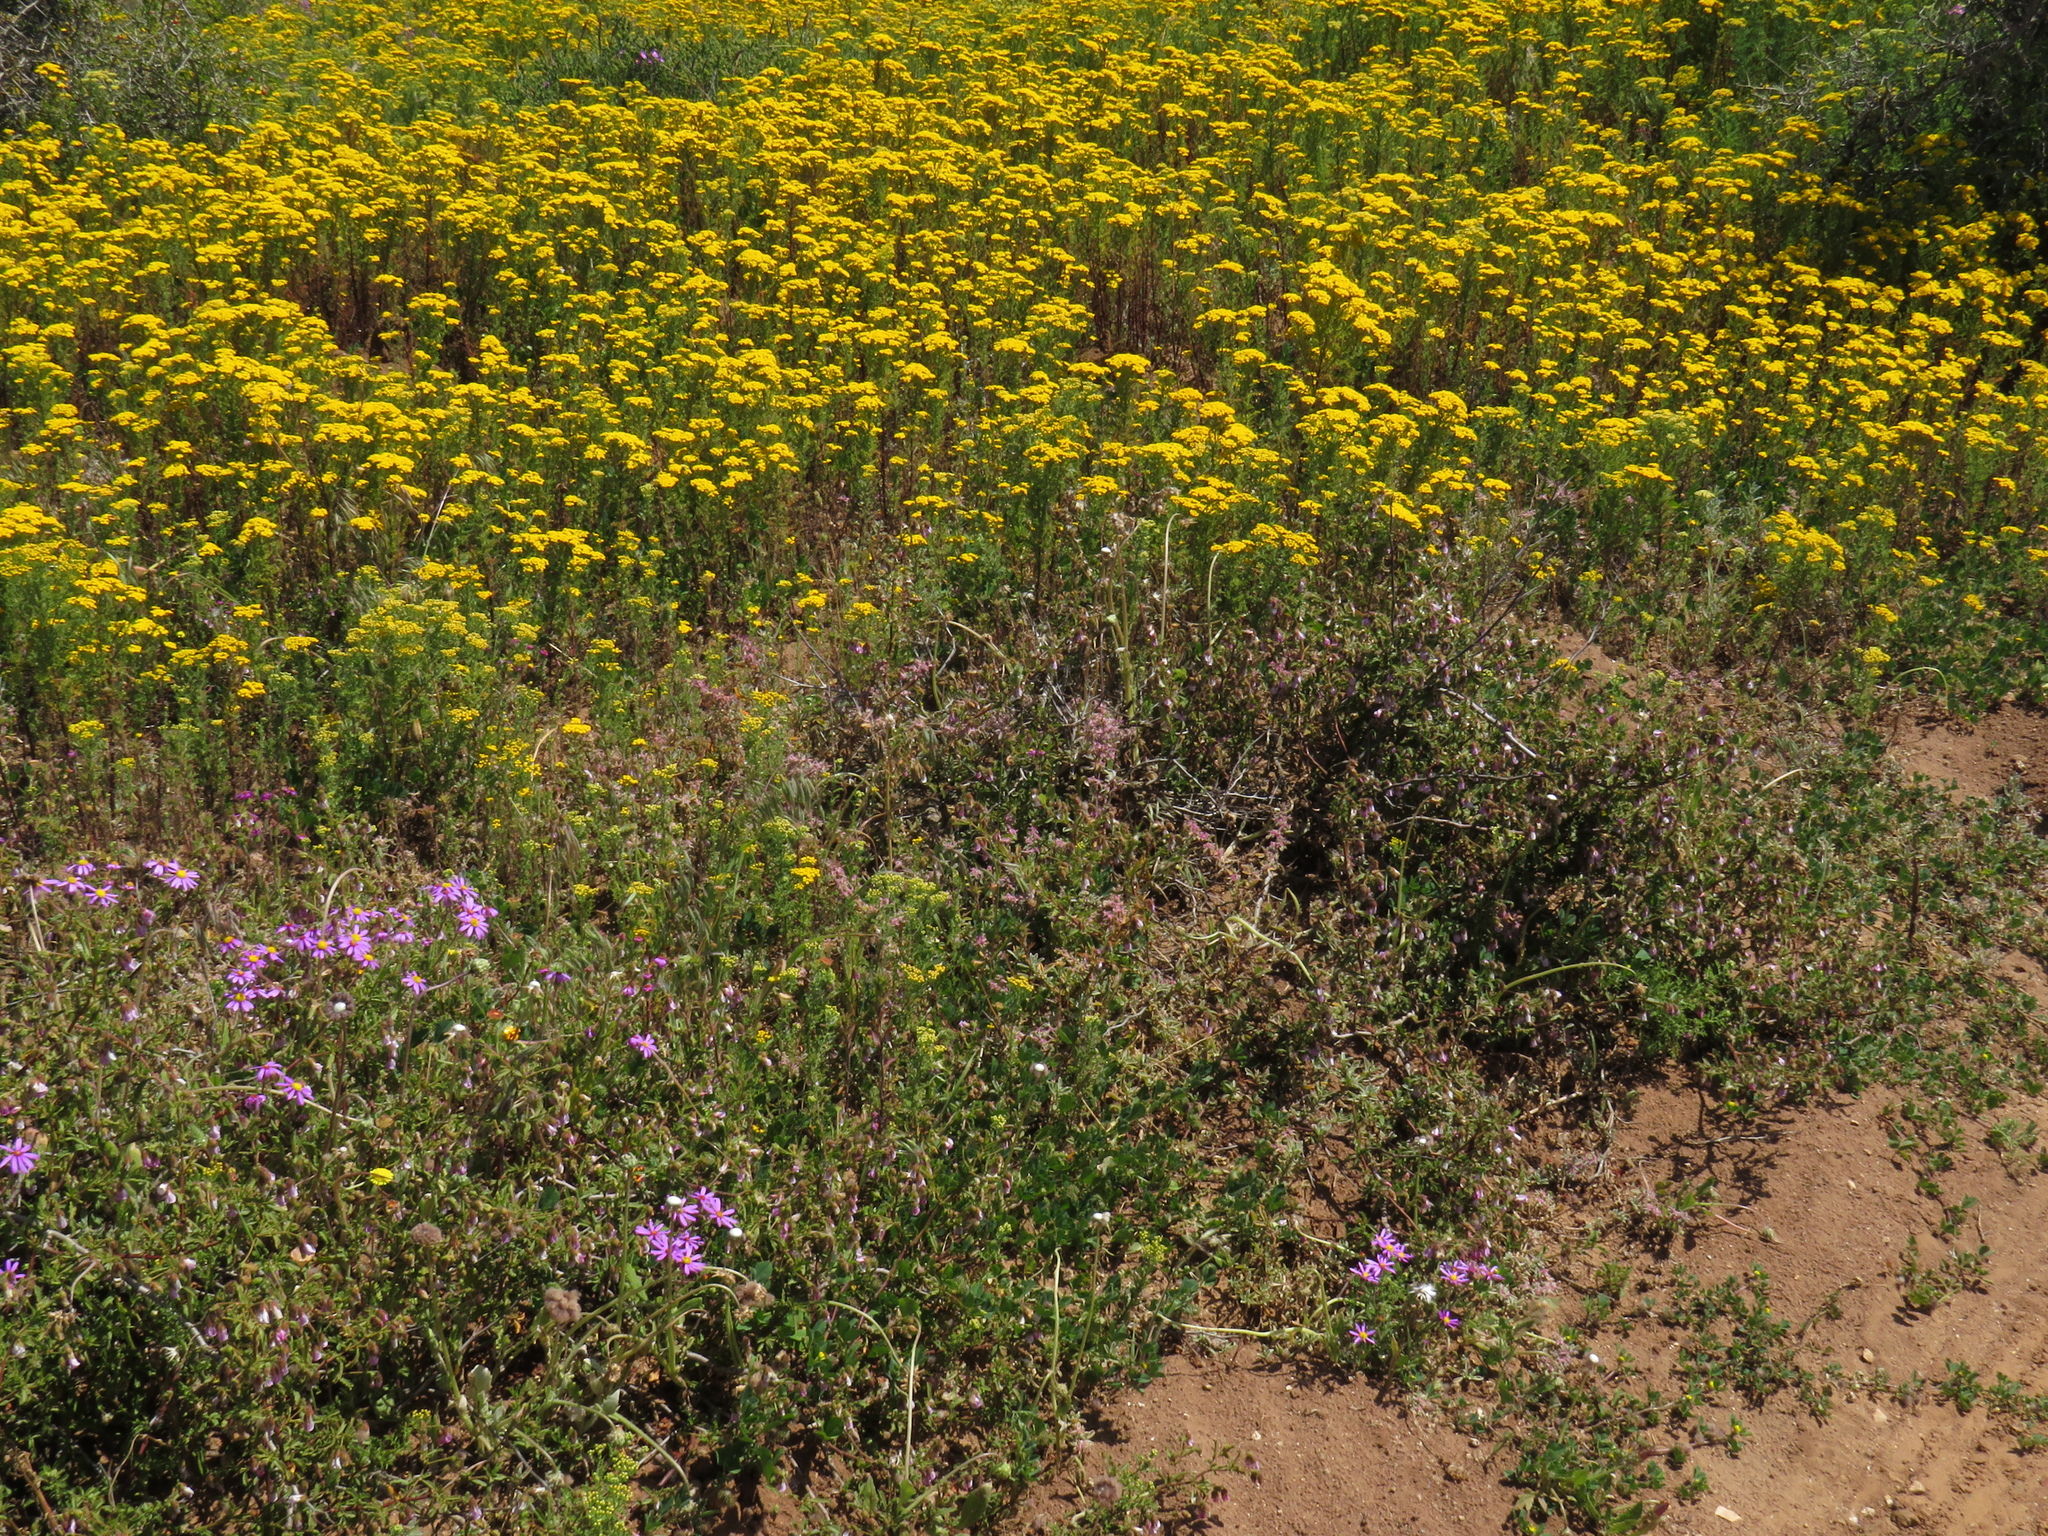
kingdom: Plantae
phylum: Tracheophyta
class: Magnoliopsida
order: Malvales
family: Malvaceae
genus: Hermannia
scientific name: Hermannia heterophylla
